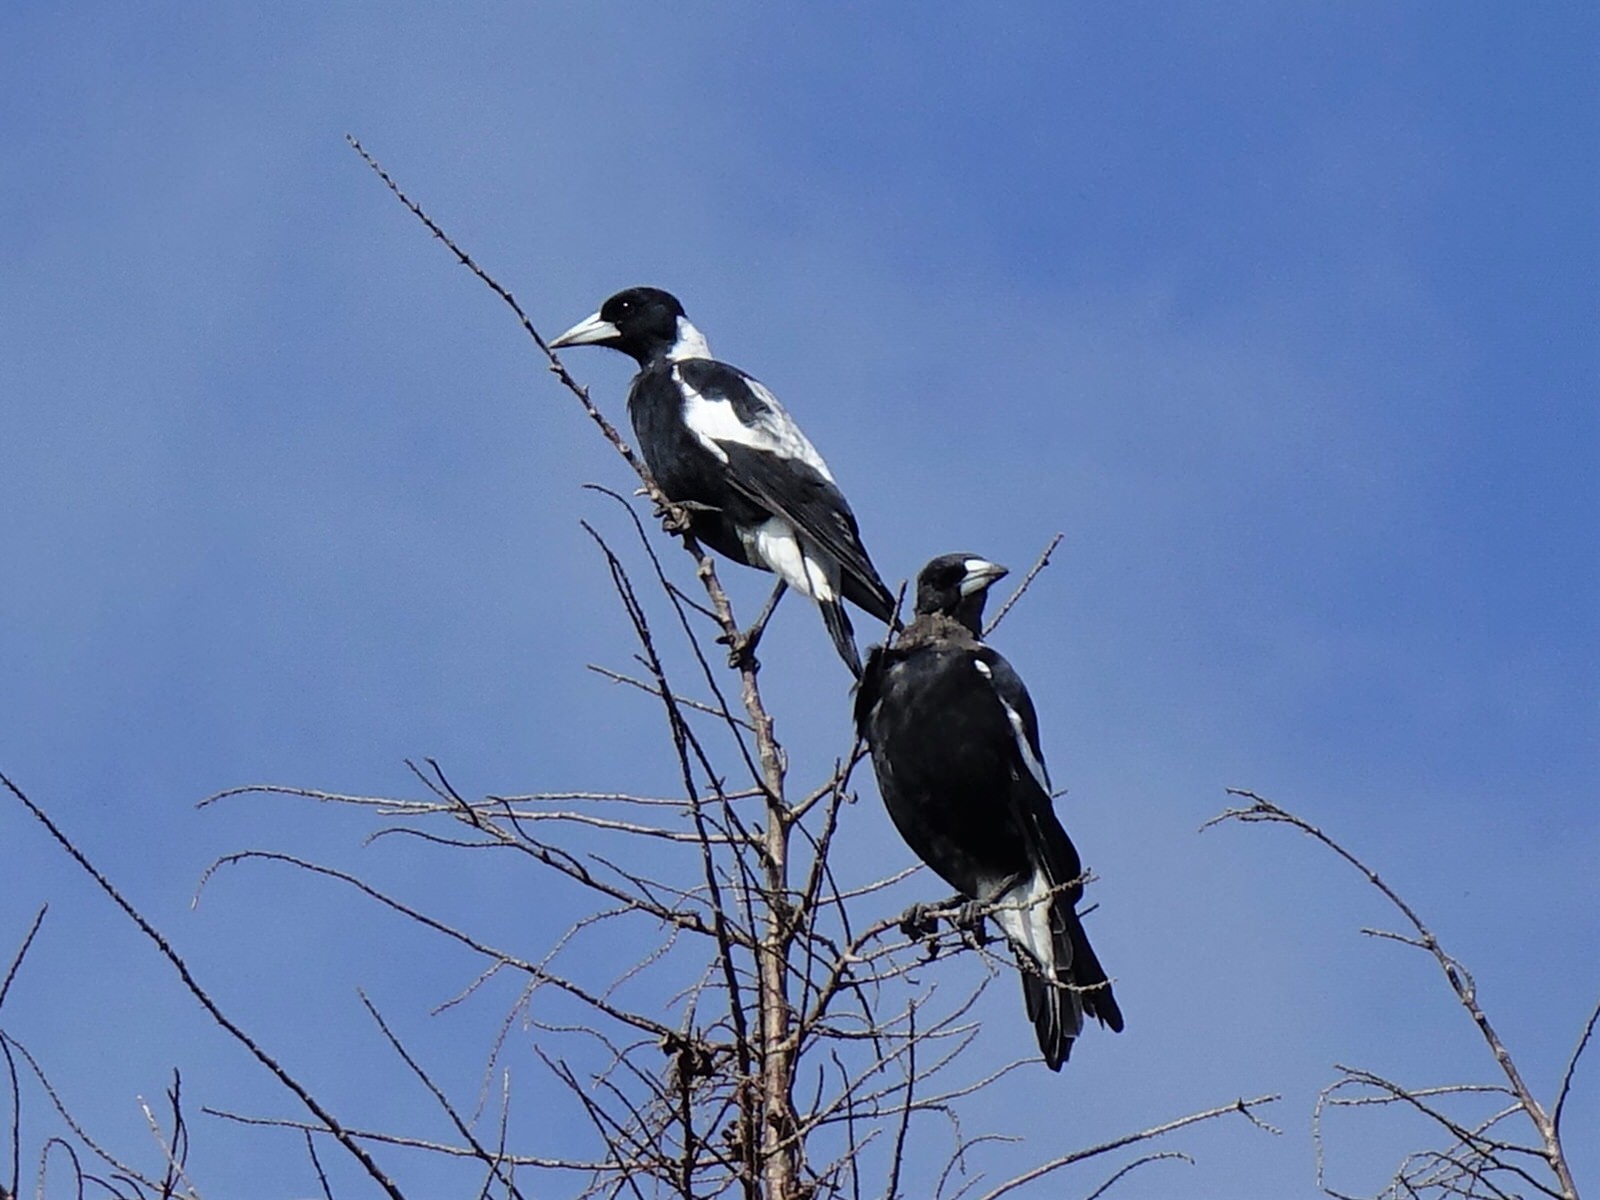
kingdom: Animalia
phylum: Chordata
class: Aves
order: Passeriformes
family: Cracticidae
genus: Gymnorhina
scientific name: Gymnorhina tibicen
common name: Australian magpie
